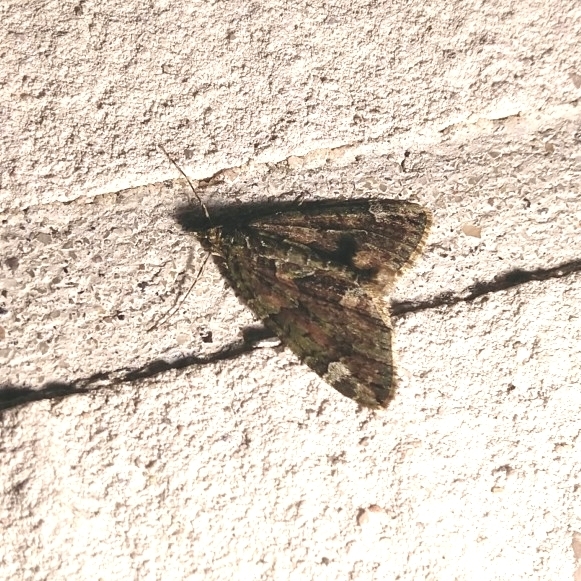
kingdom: Animalia
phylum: Arthropoda
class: Insecta
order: Lepidoptera
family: Geometridae
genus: Chloroclysta
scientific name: Chloroclysta siterata
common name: Red-green carpet
